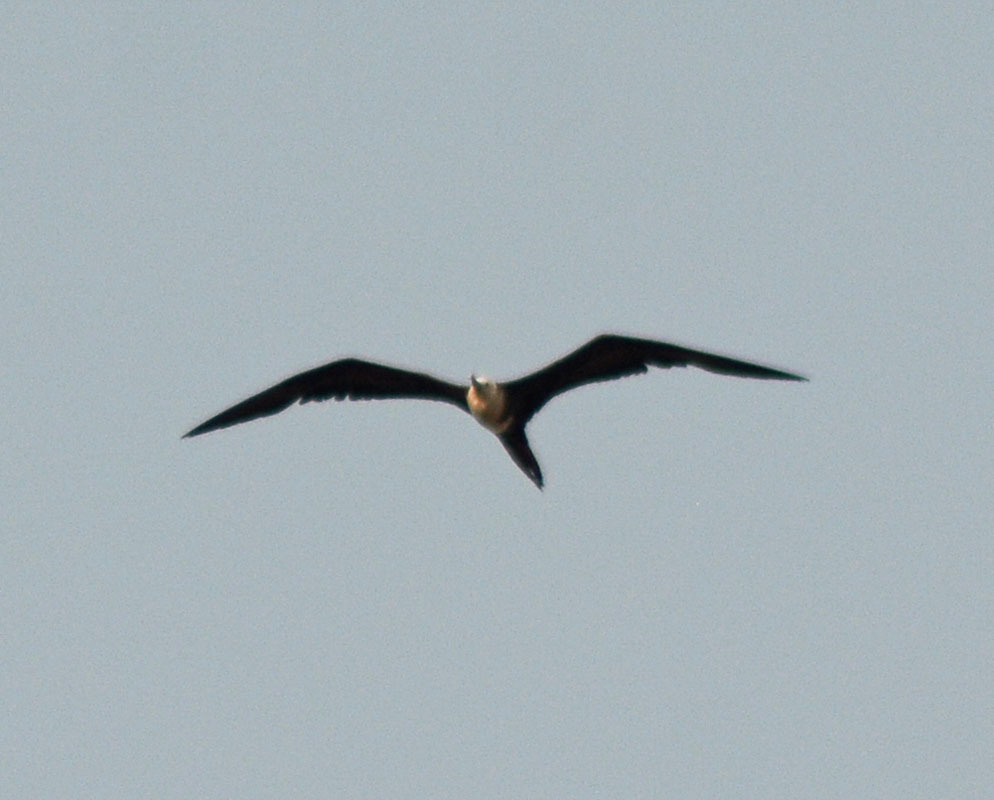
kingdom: Animalia
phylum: Chordata
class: Aves
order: Suliformes
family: Fregatidae
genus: Fregata
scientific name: Fregata magnificens
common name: Magnificent frigatebird
